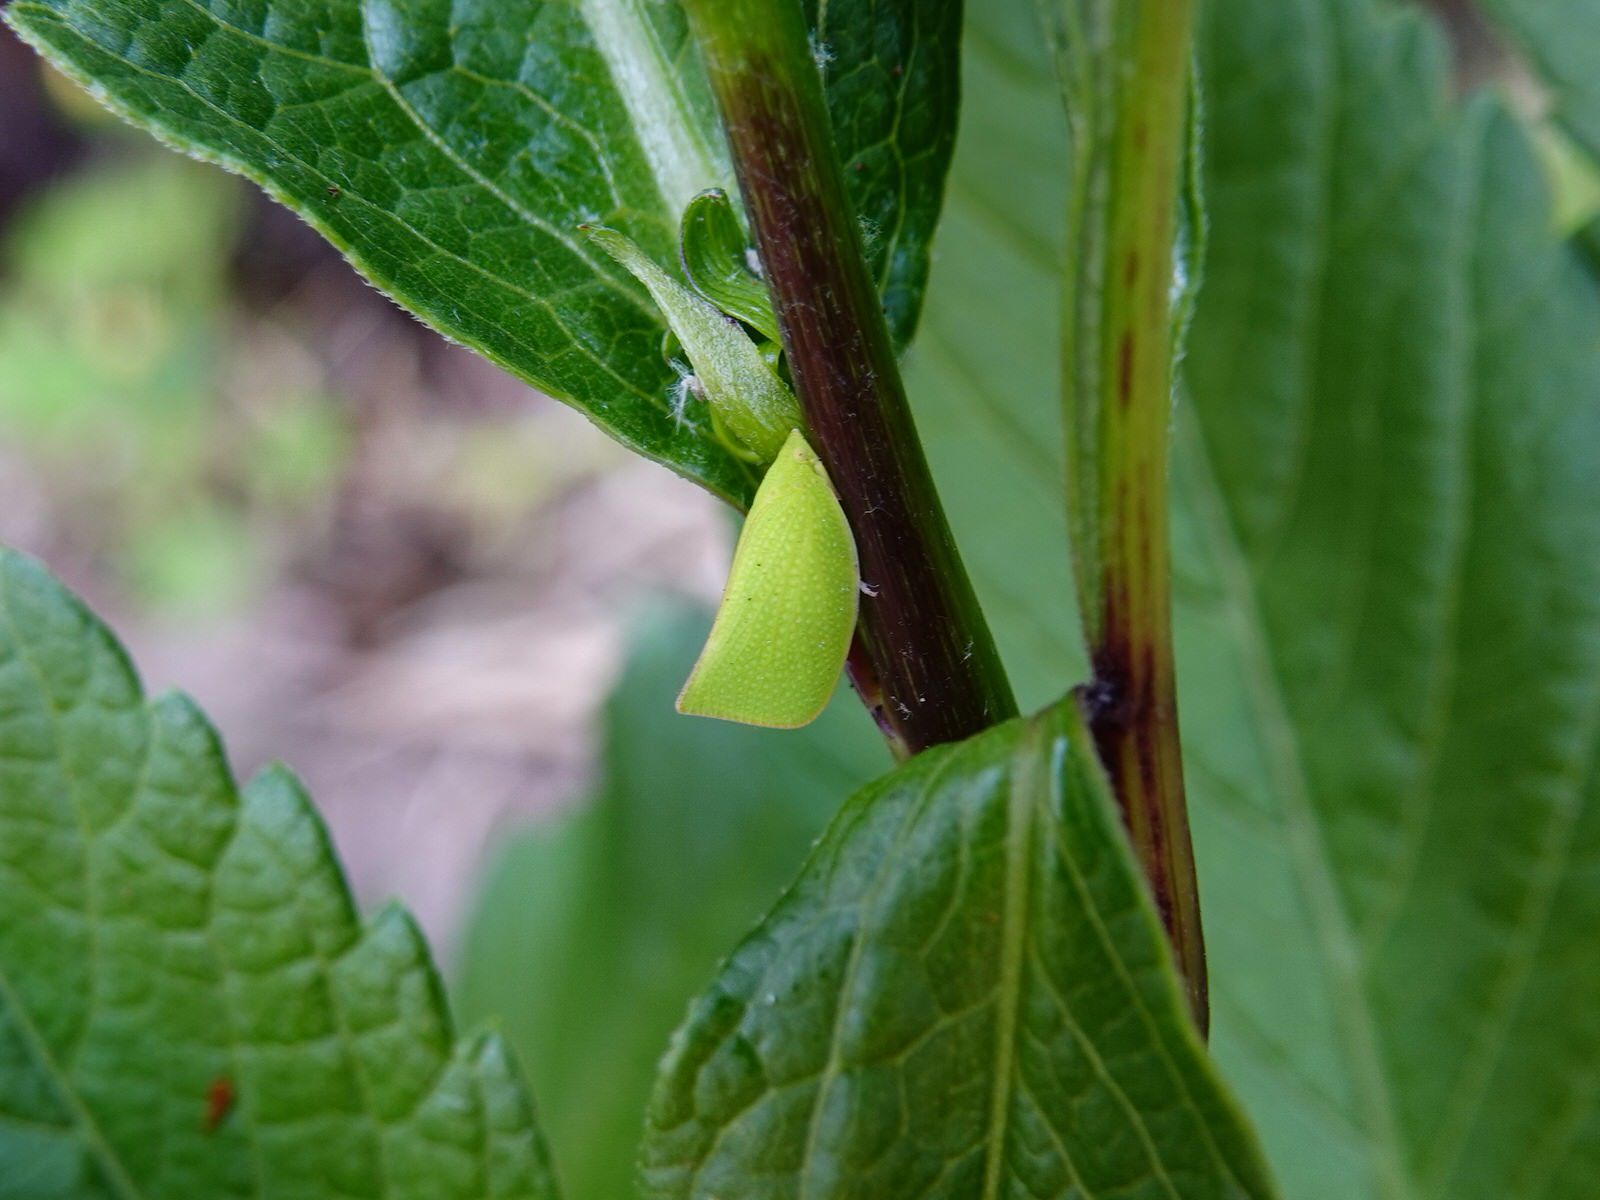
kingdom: Animalia
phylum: Arthropoda
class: Insecta
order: Hemiptera
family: Flatidae
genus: Siphanta
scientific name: Siphanta acuta
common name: Torpedo bug
